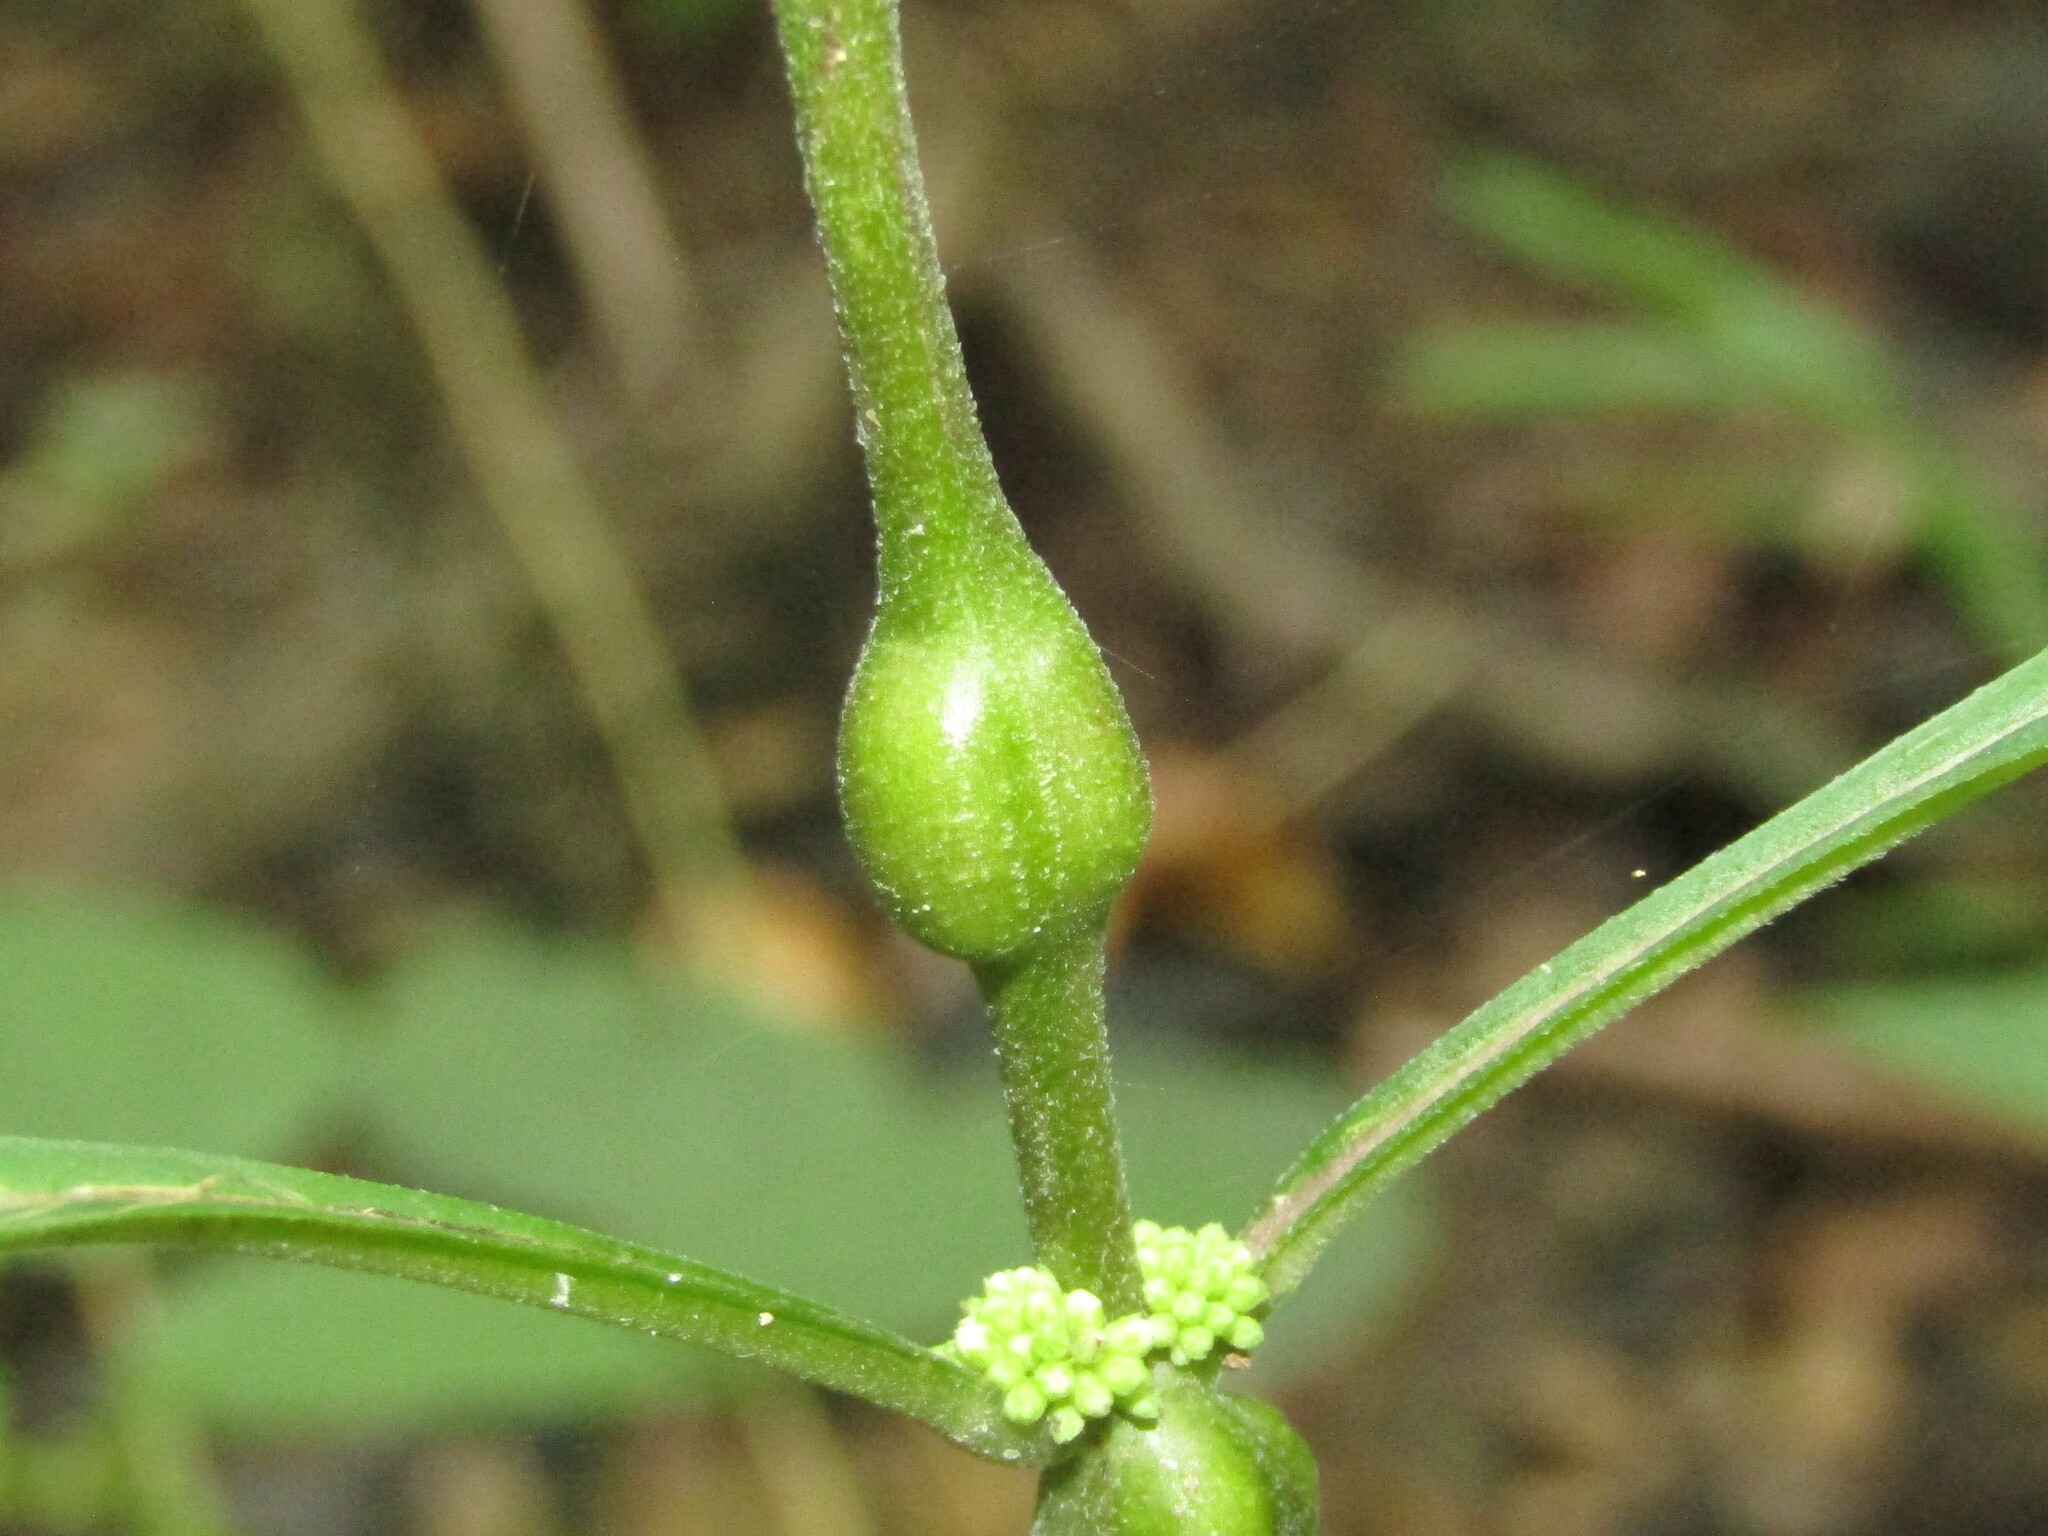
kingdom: Animalia
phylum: Arthropoda
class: Insecta
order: Diptera
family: Cecidomyiidae
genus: Neolasioptera
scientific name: Neolasioptera lycopi
